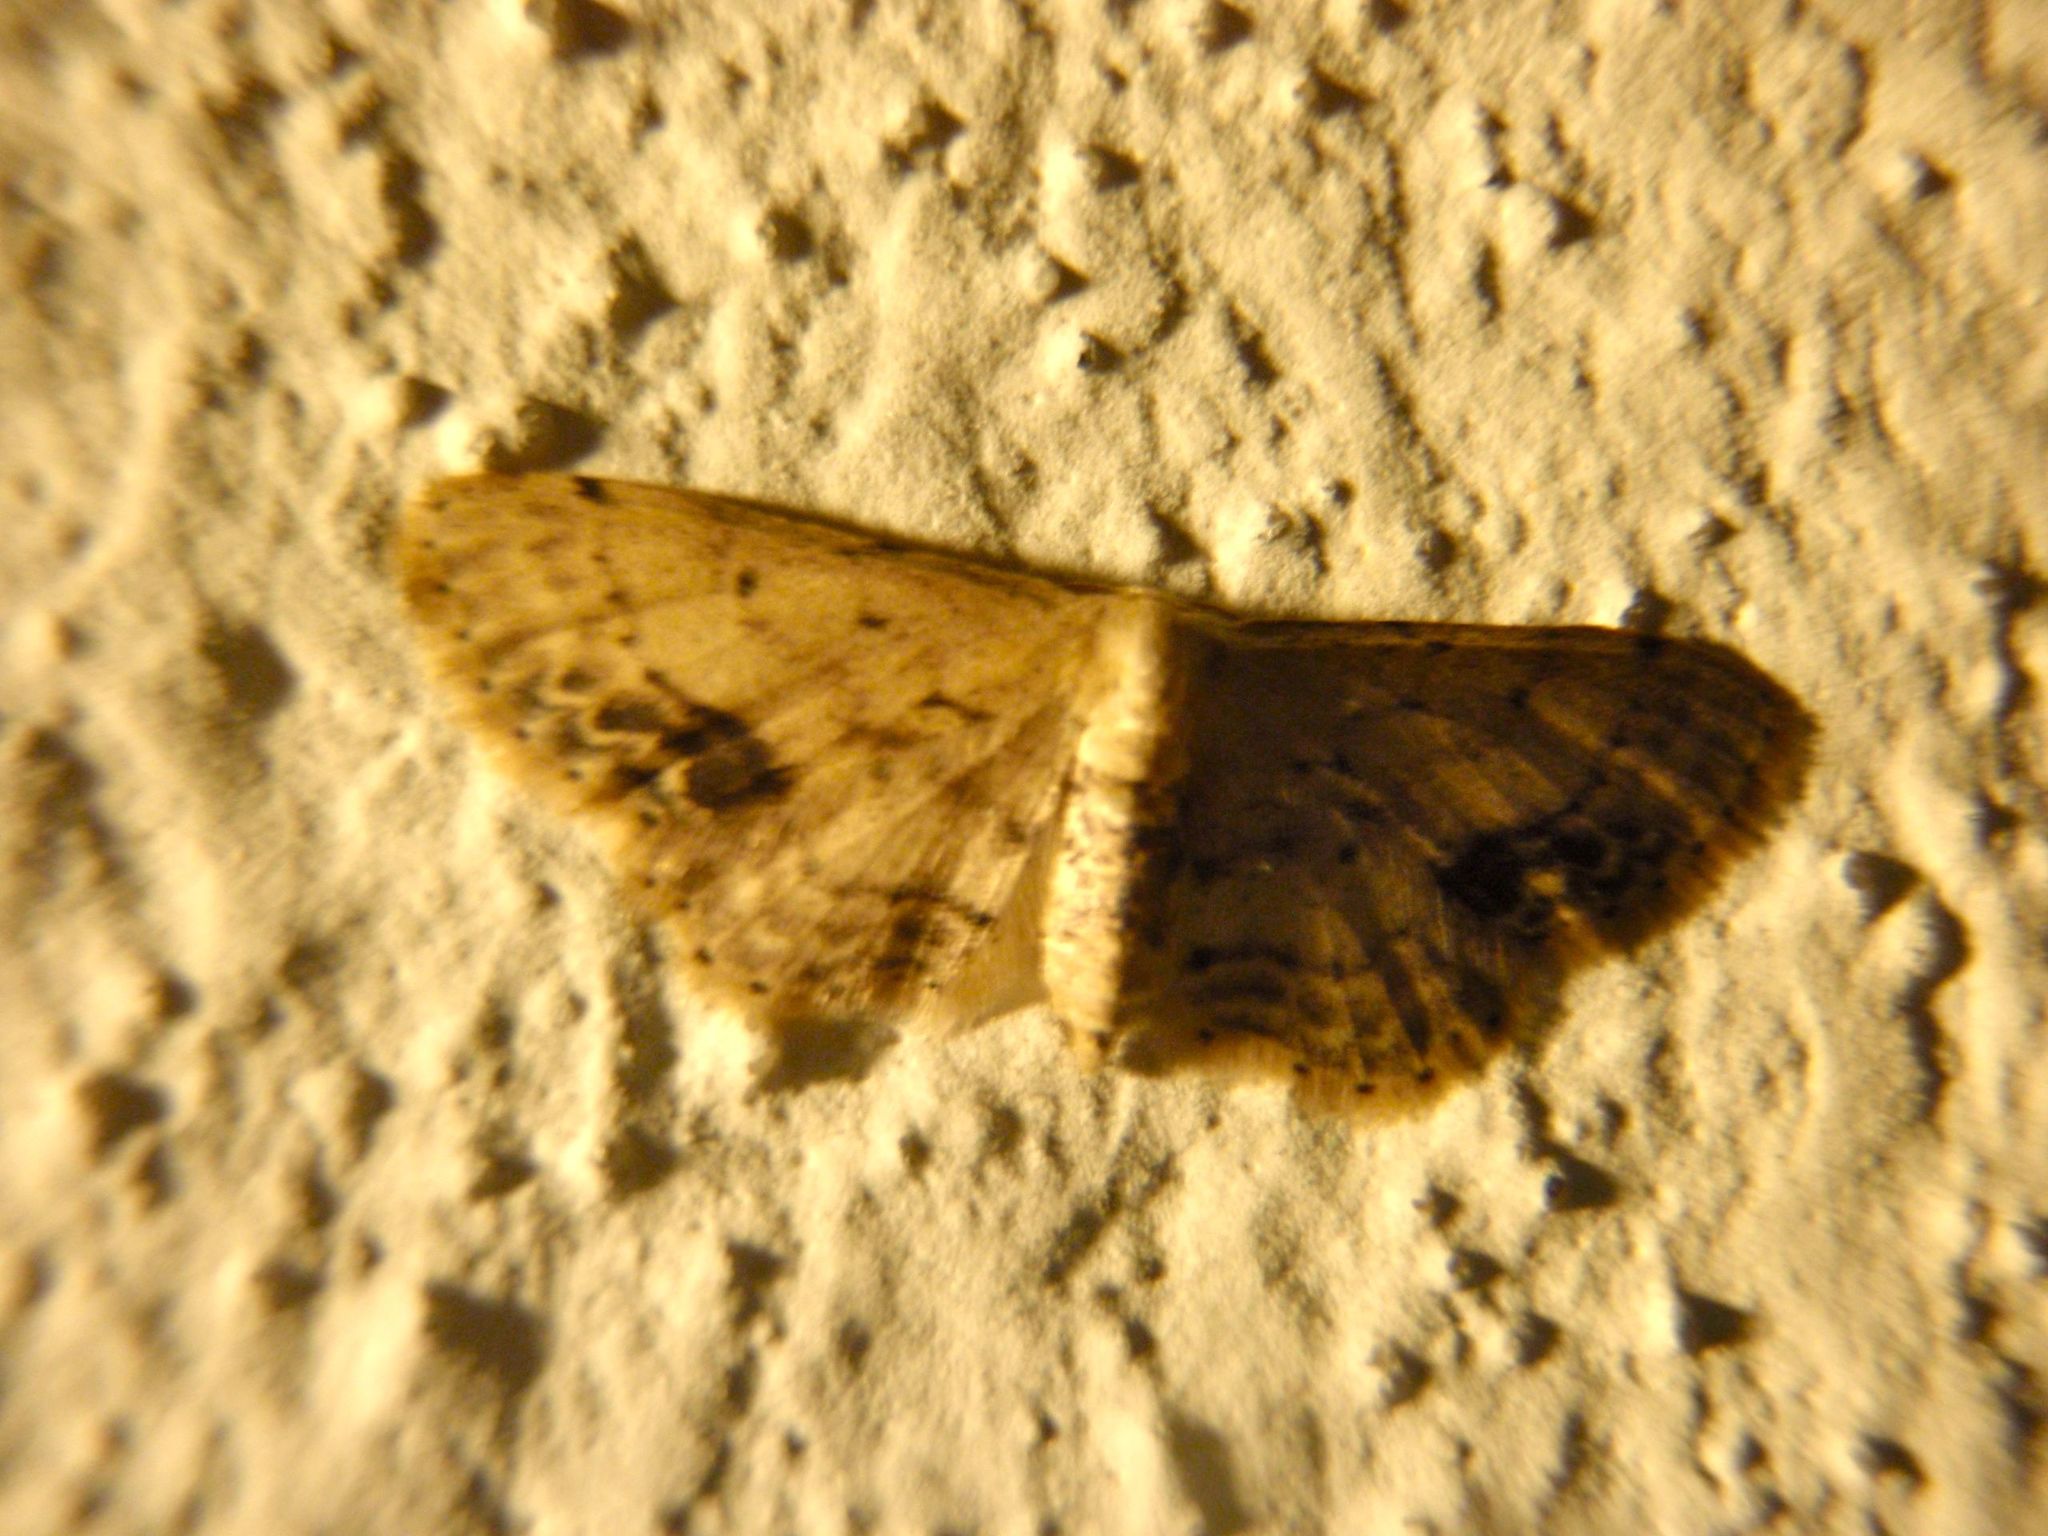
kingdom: Animalia
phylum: Arthropoda
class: Insecta
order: Lepidoptera
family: Geometridae
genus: Idaea
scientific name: Idaea dimidiata
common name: Single-dotted wave
